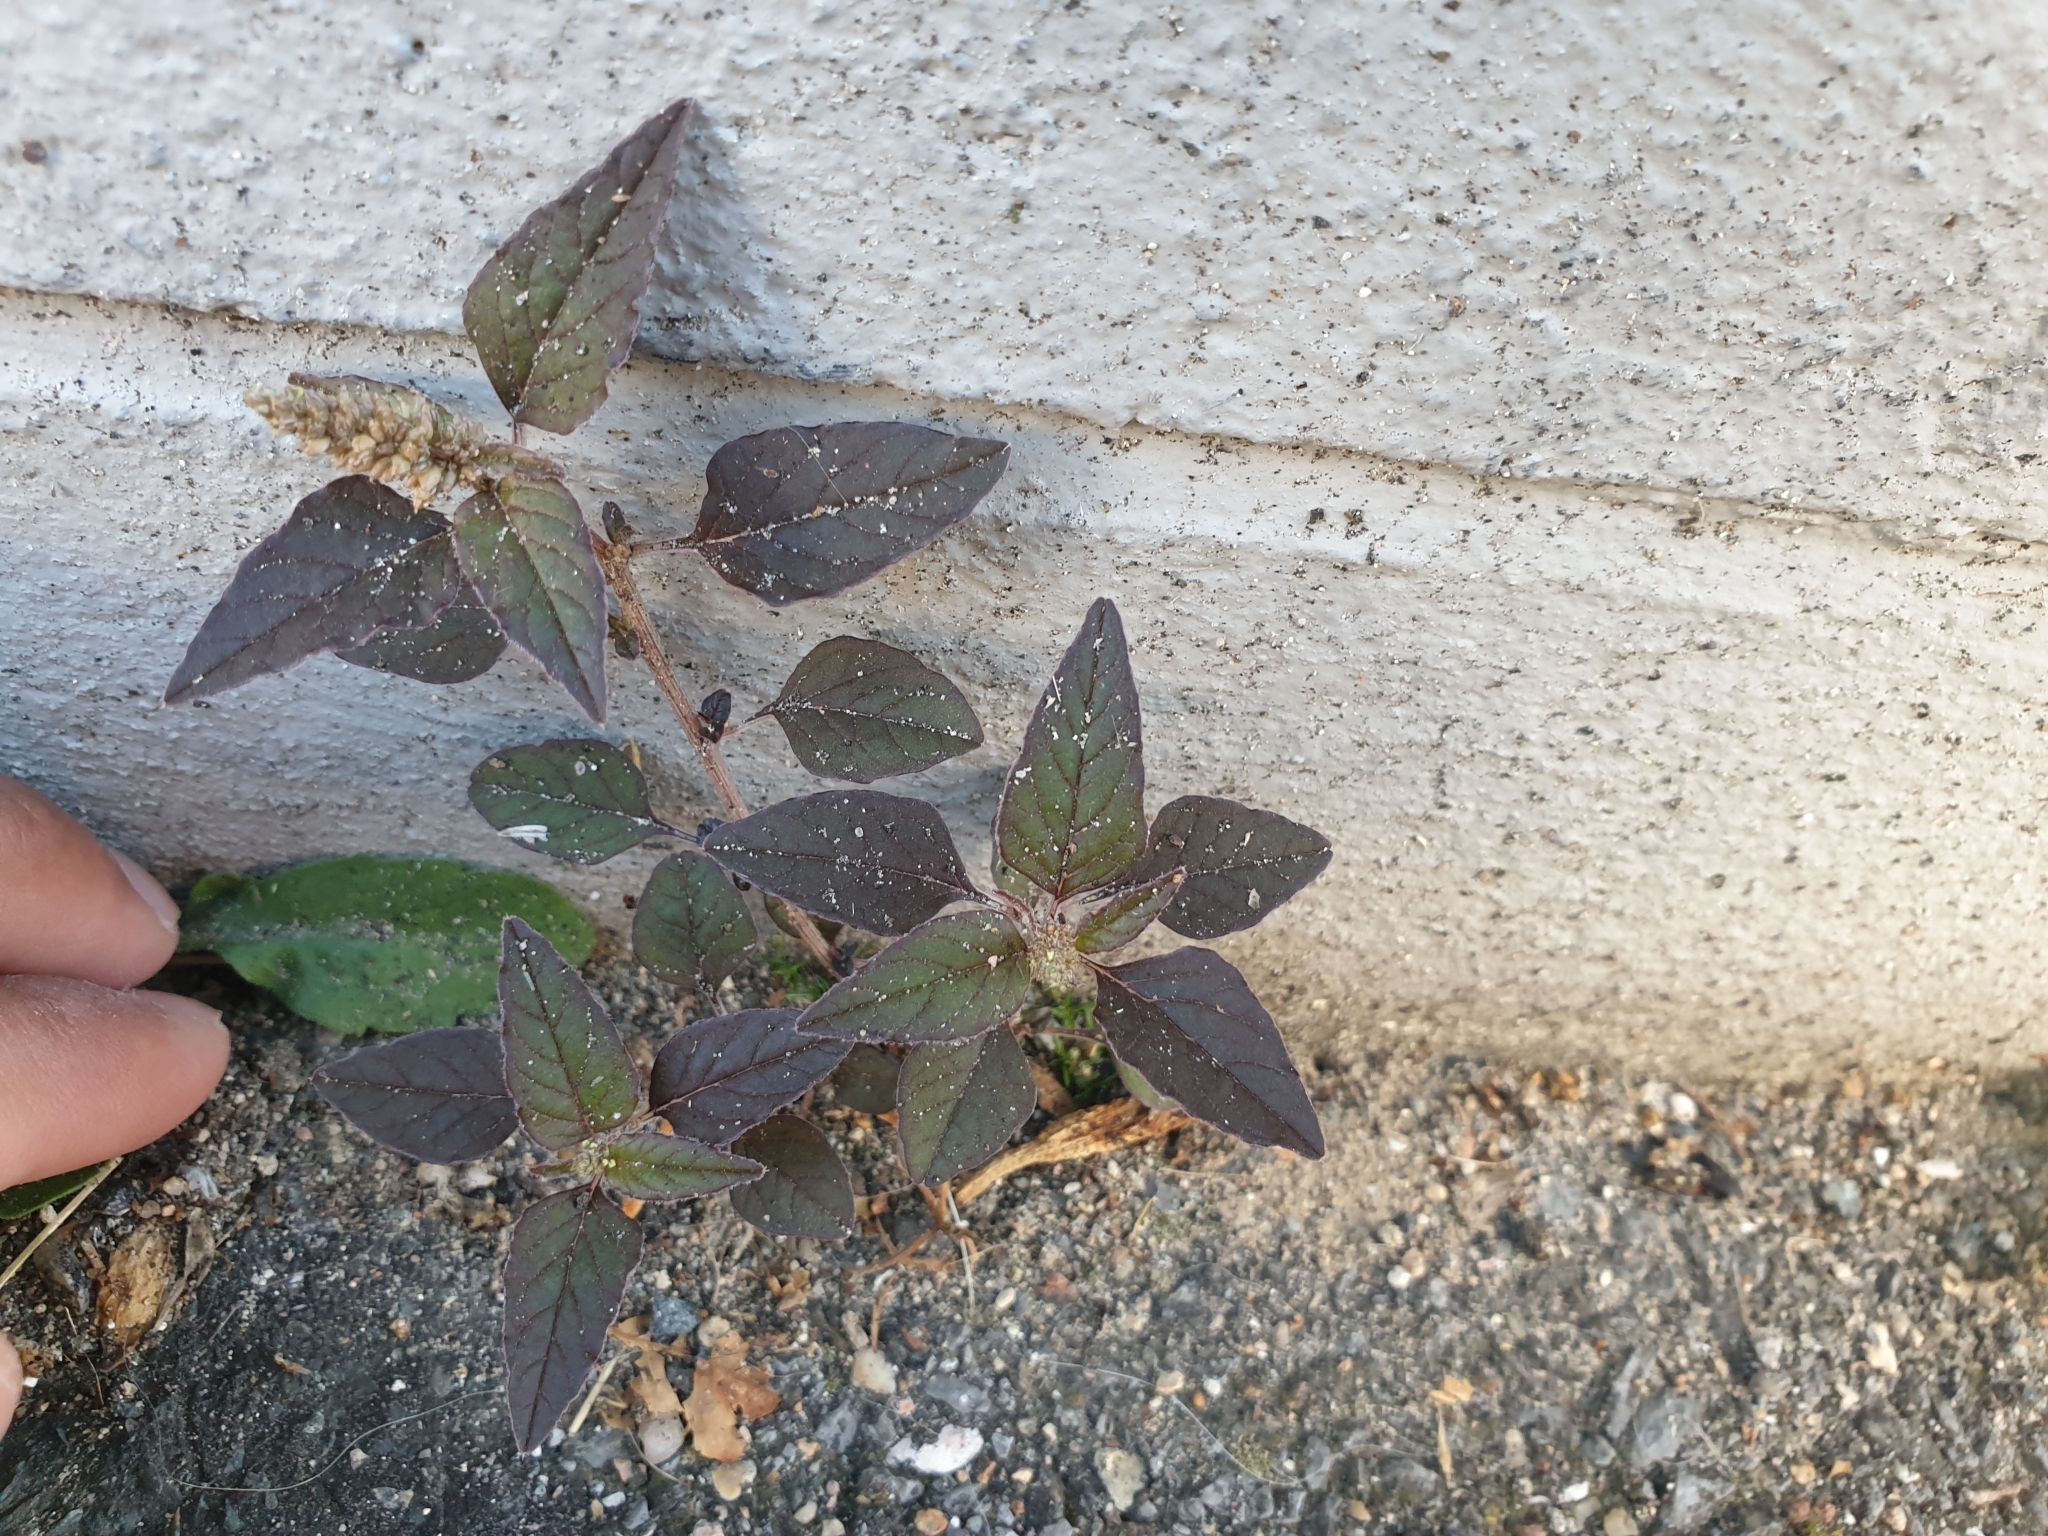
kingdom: Plantae
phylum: Tracheophyta
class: Magnoliopsida
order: Caryophyllales
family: Amaranthaceae
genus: Amaranthus
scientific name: Amaranthus deflexus
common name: Perennial pigweed
